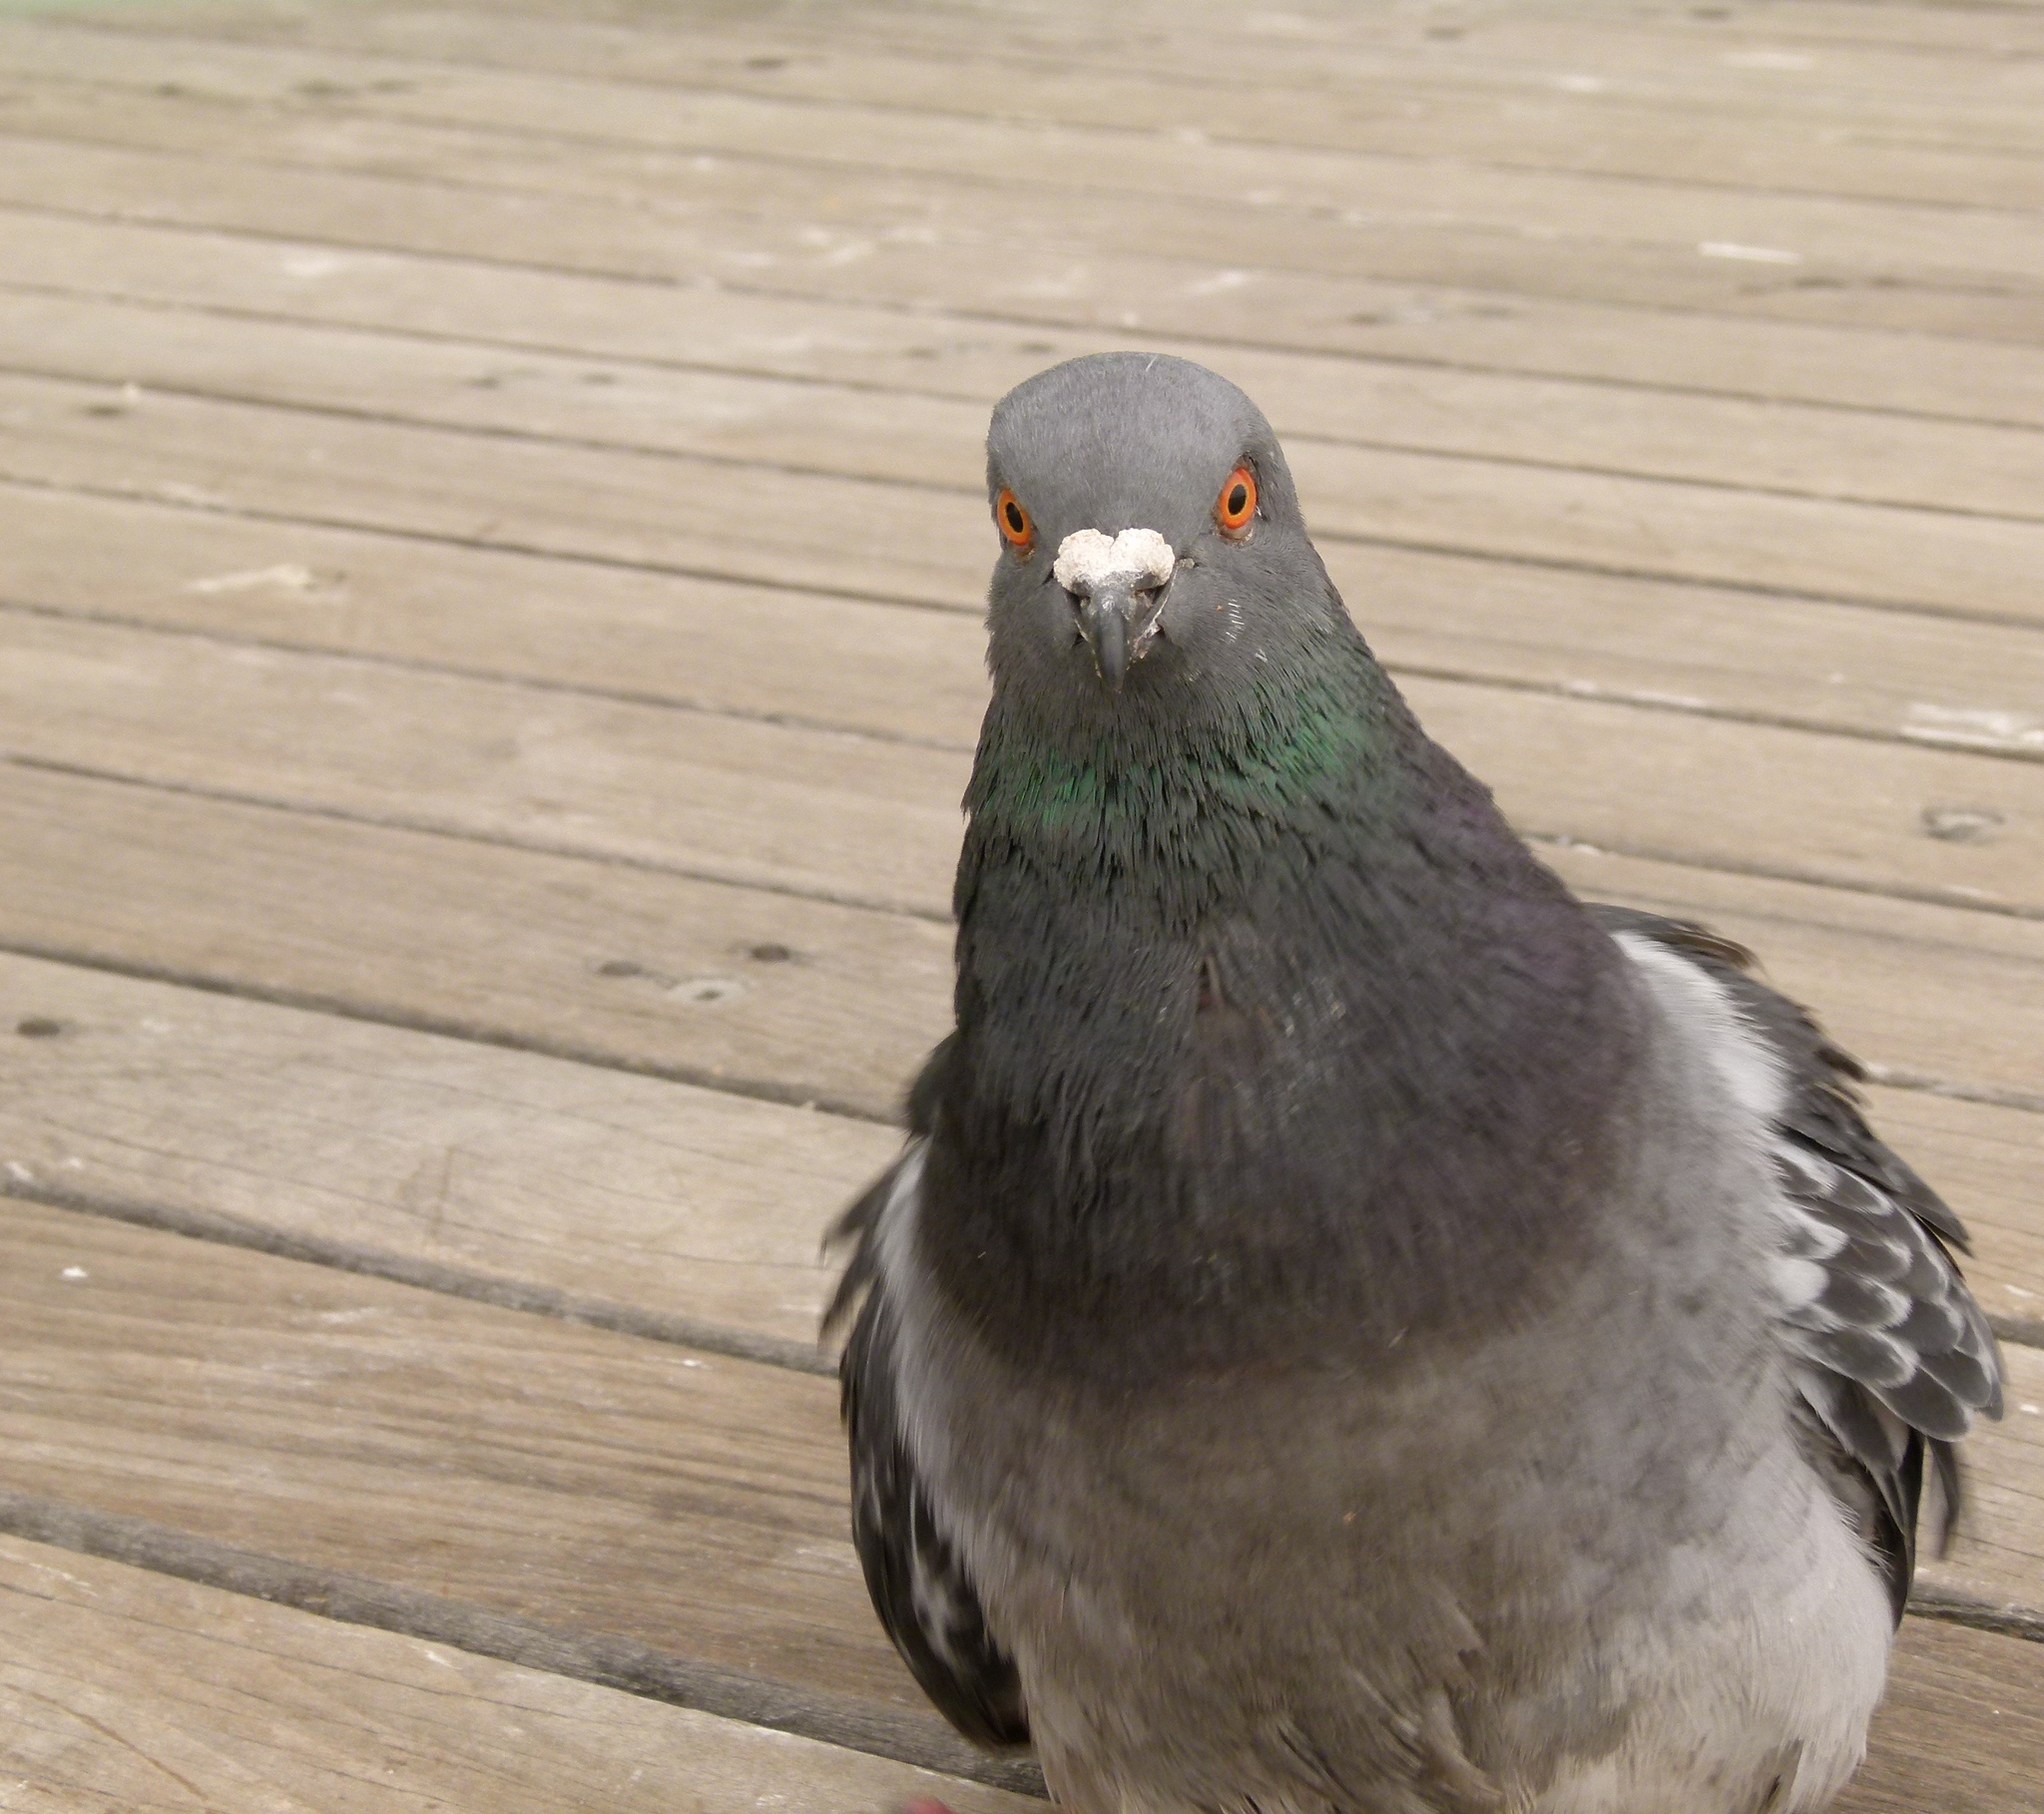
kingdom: Animalia
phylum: Chordata
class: Aves
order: Columbiformes
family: Columbidae
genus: Columba
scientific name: Columba livia
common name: Rock pigeon
